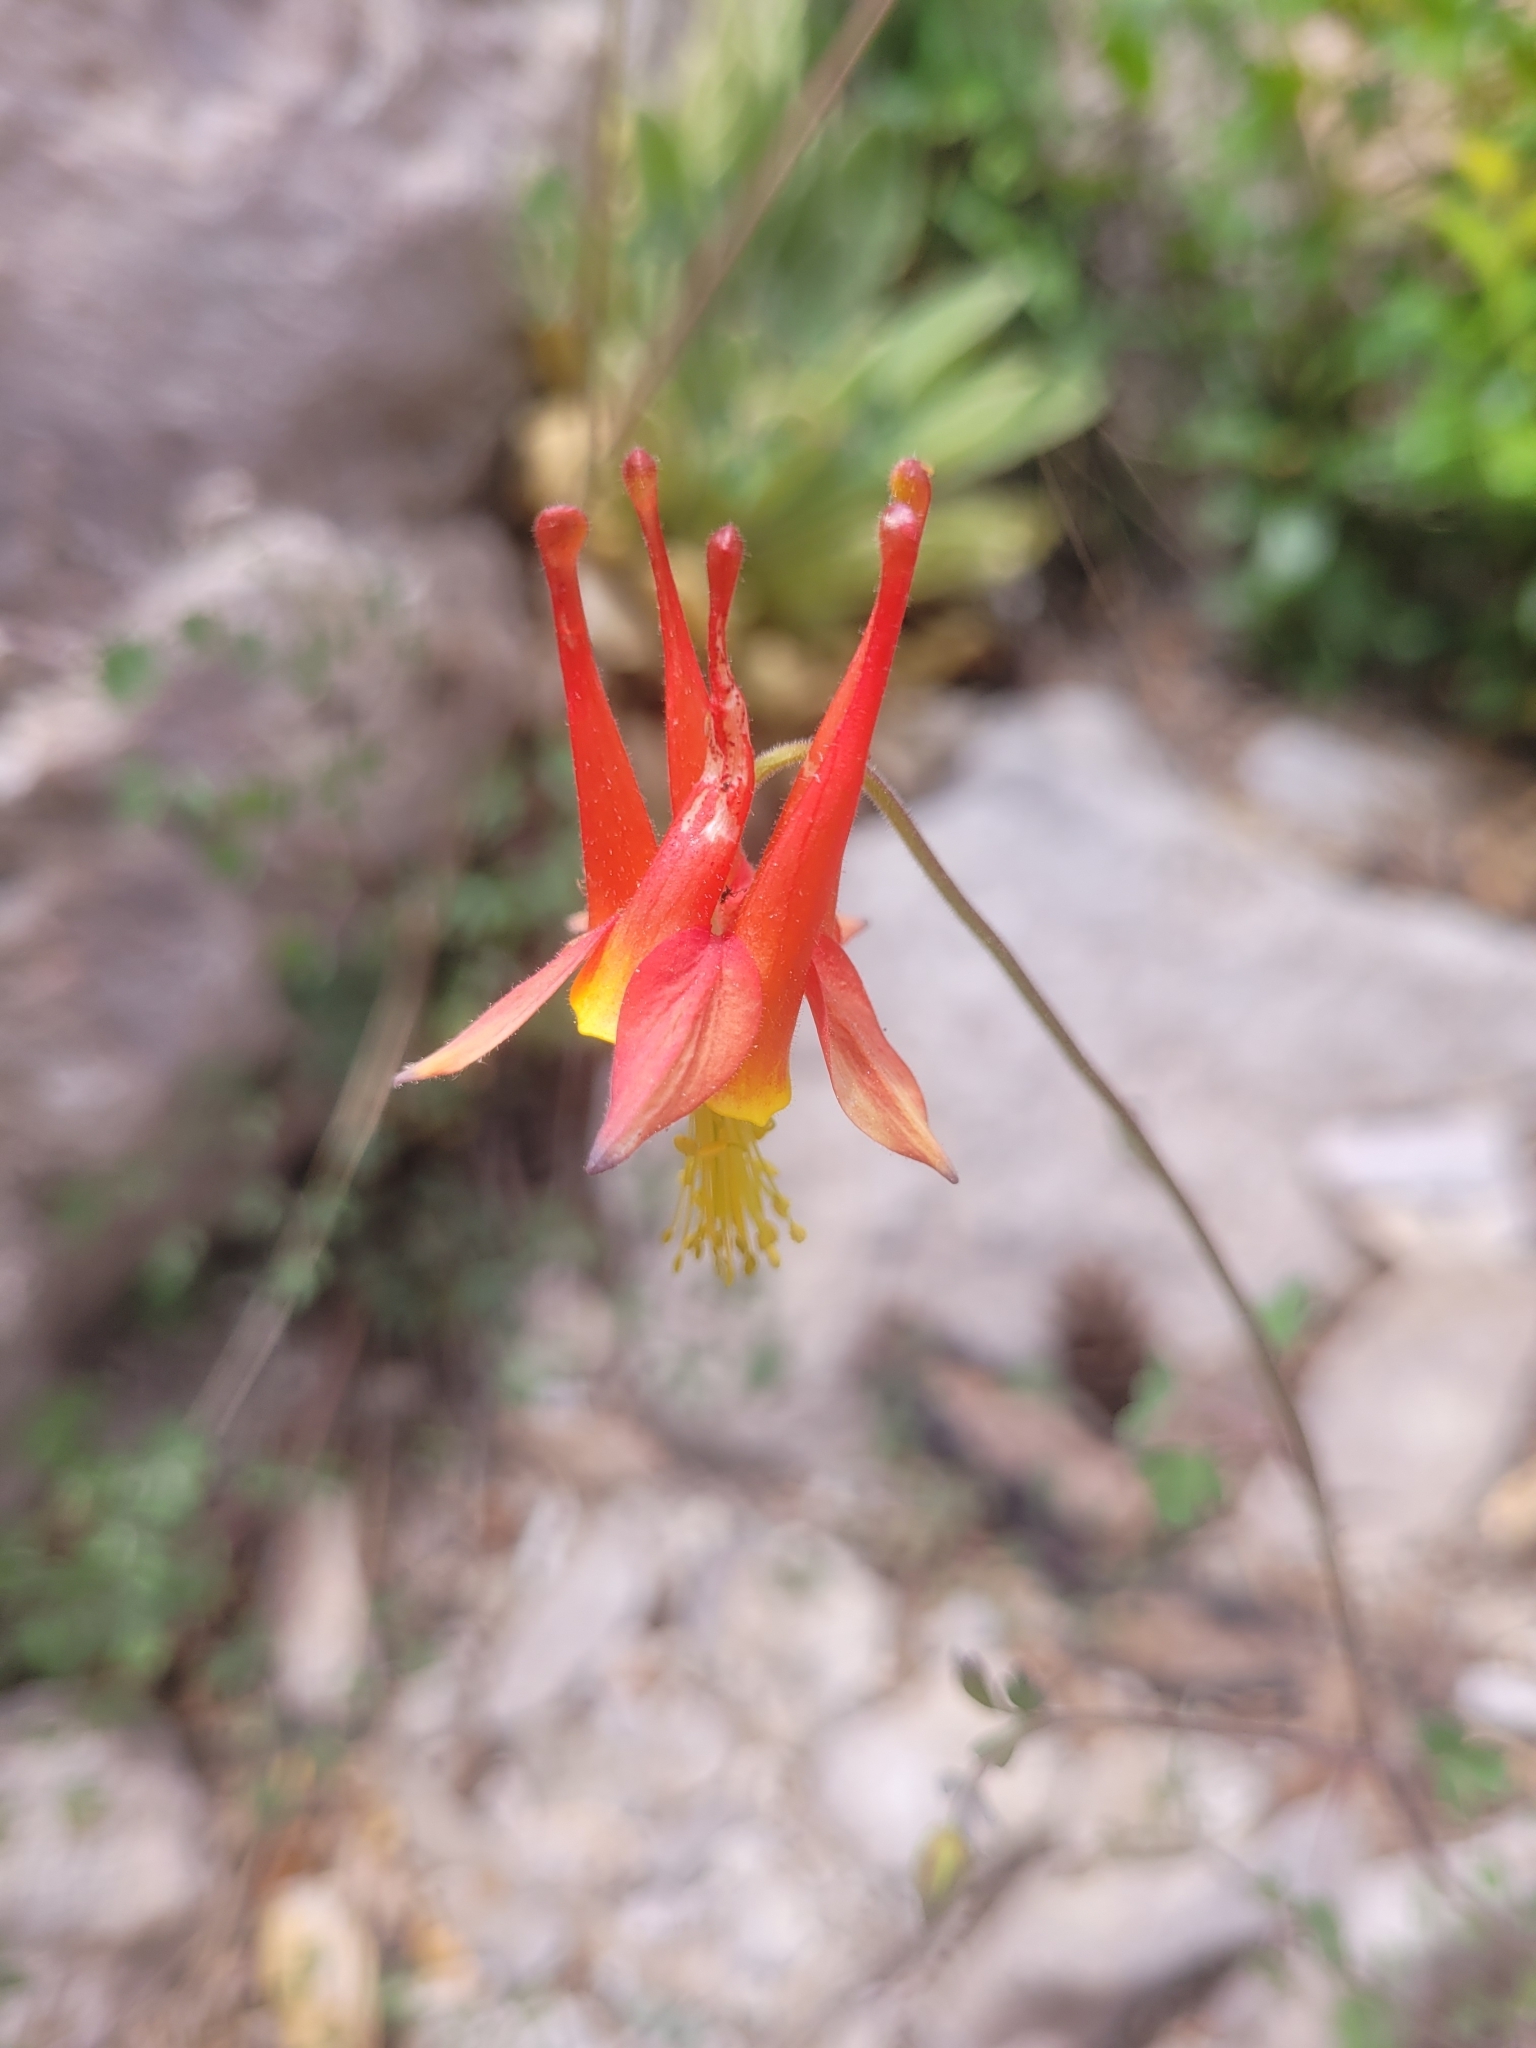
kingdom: Plantae
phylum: Tracheophyta
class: Magnoliopsida
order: Ranunculales
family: Ranunculaceae
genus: Aquilegia
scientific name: Aquilegia desertorum
